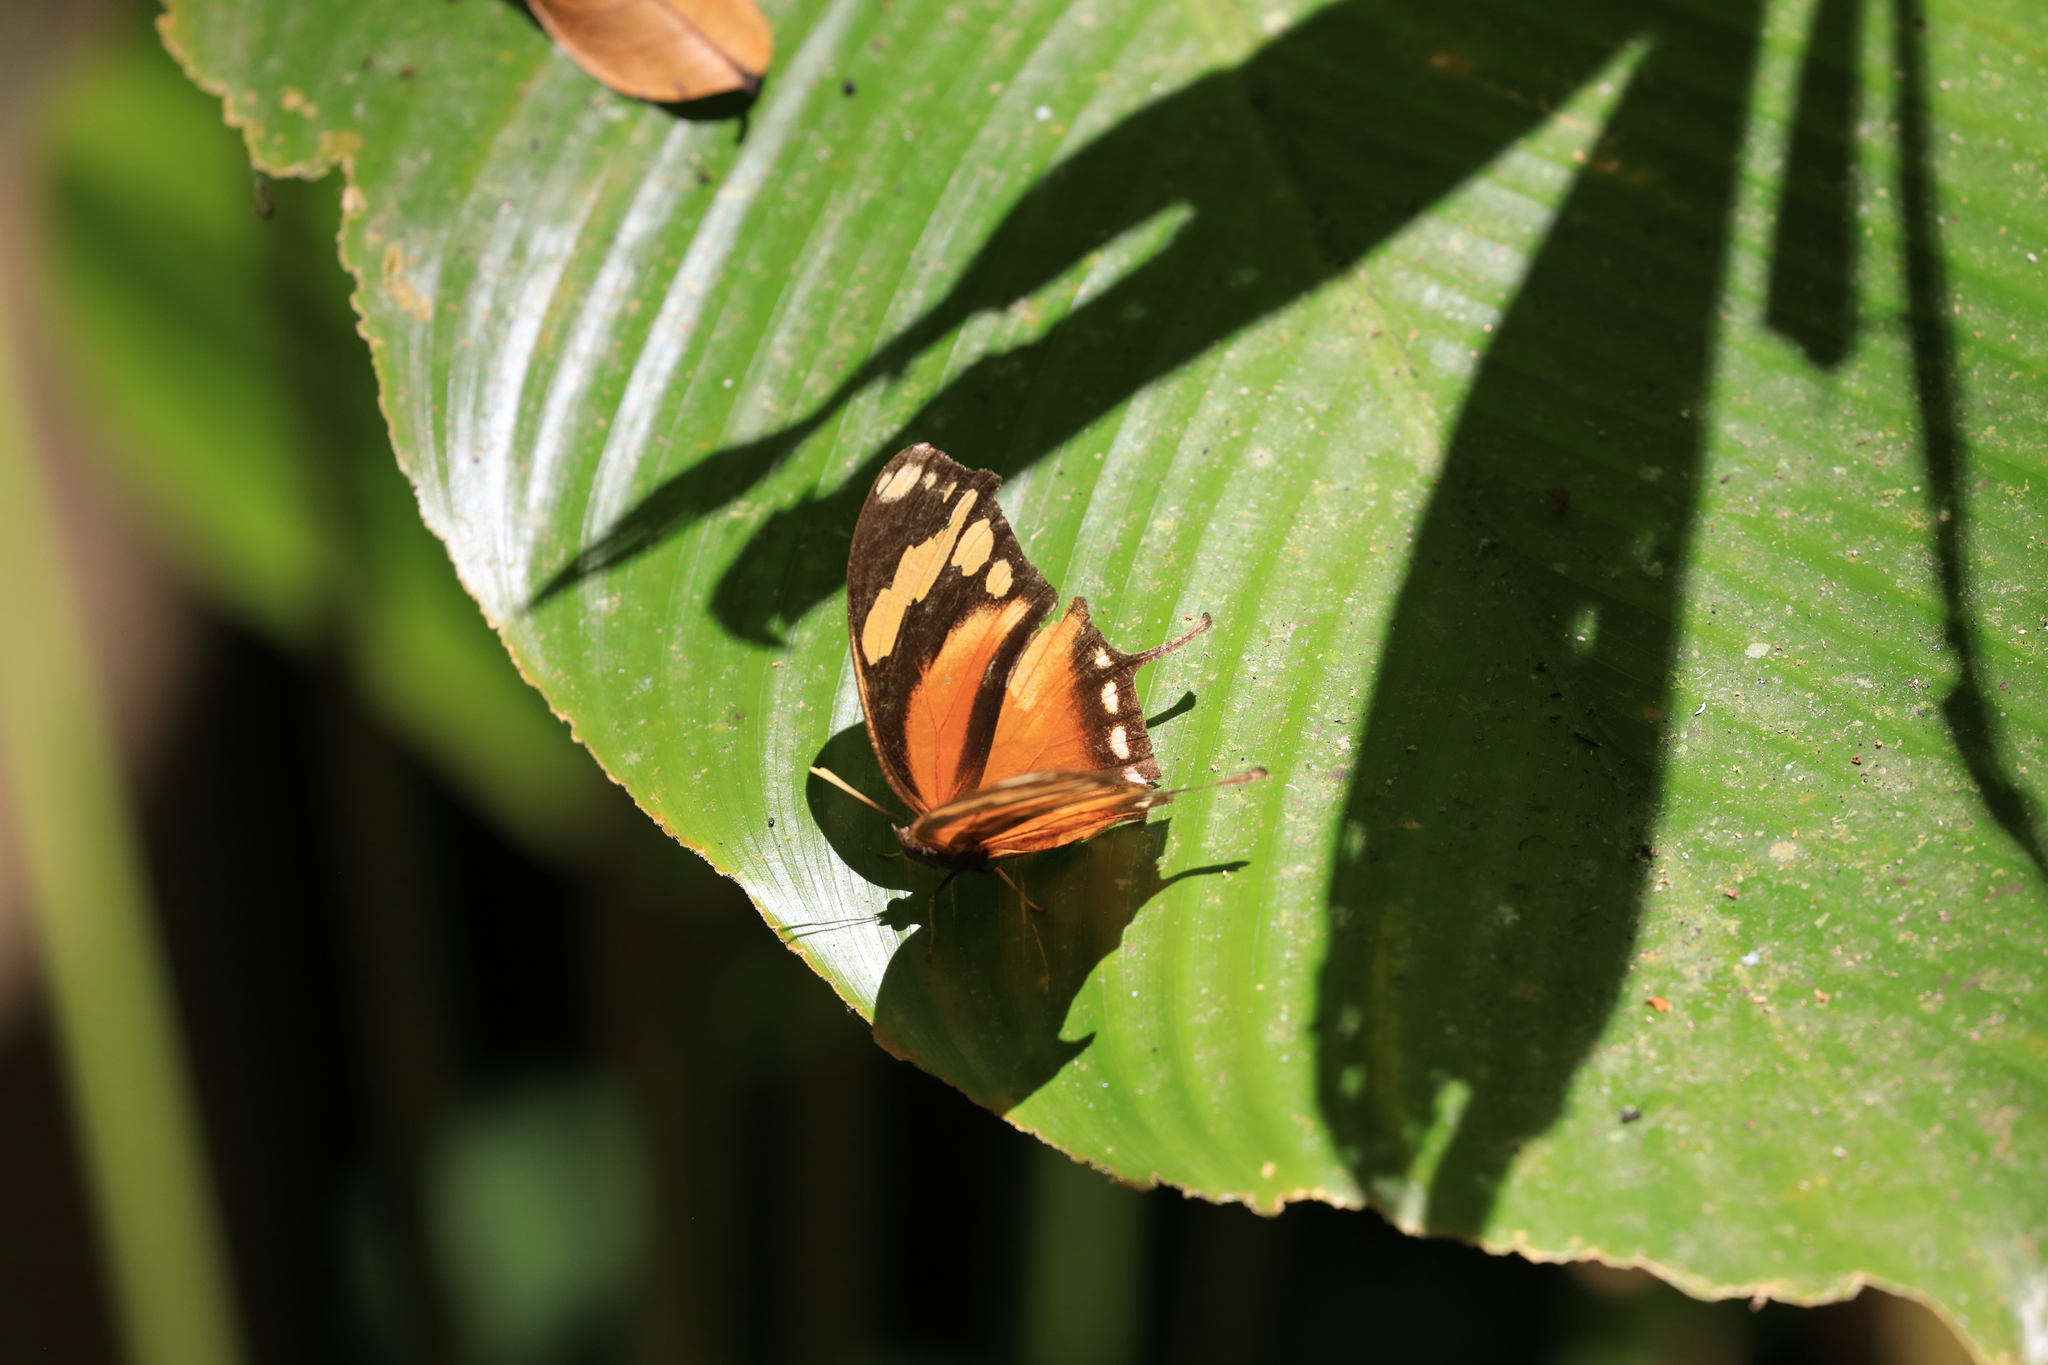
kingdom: Animalia
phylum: Arthropoda
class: Insecta
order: Lepidoptera
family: Nymphalidae
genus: Consul
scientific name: Consul fabius
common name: Tiger leafwing
